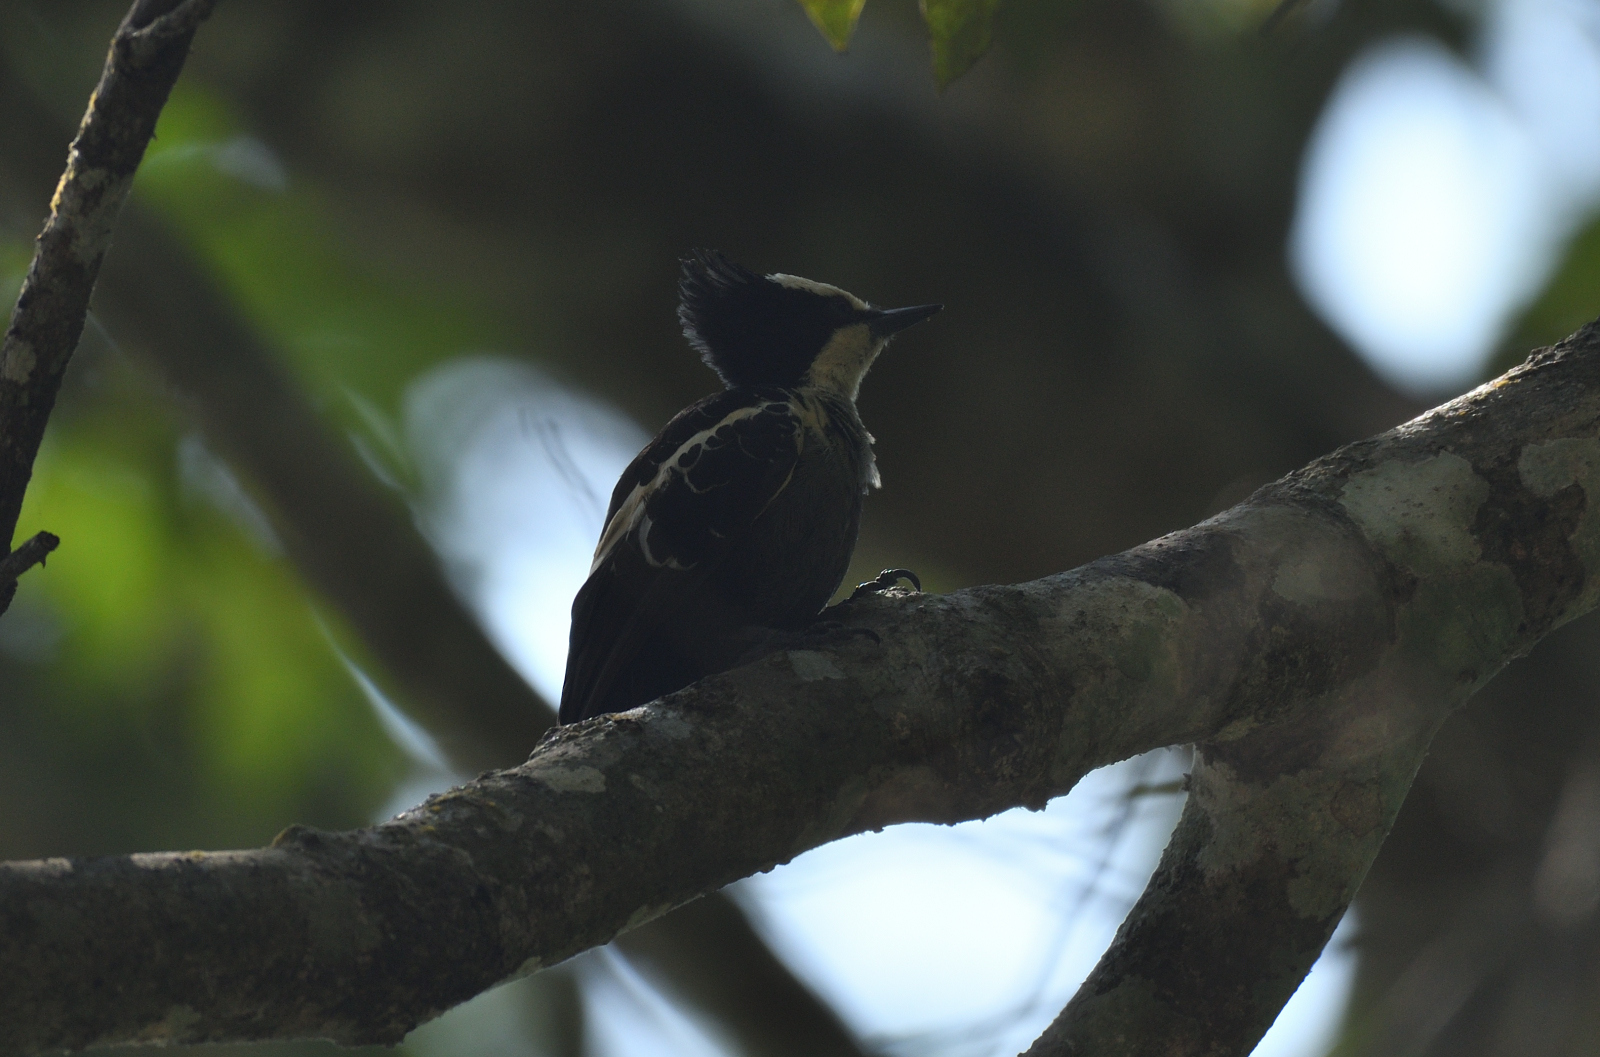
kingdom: Animalia
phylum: Chordata
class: Aves
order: Piciformes
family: Picidae
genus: Hemicircus
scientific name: Hemicircus canente
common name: Heart-spotted woodpecker
